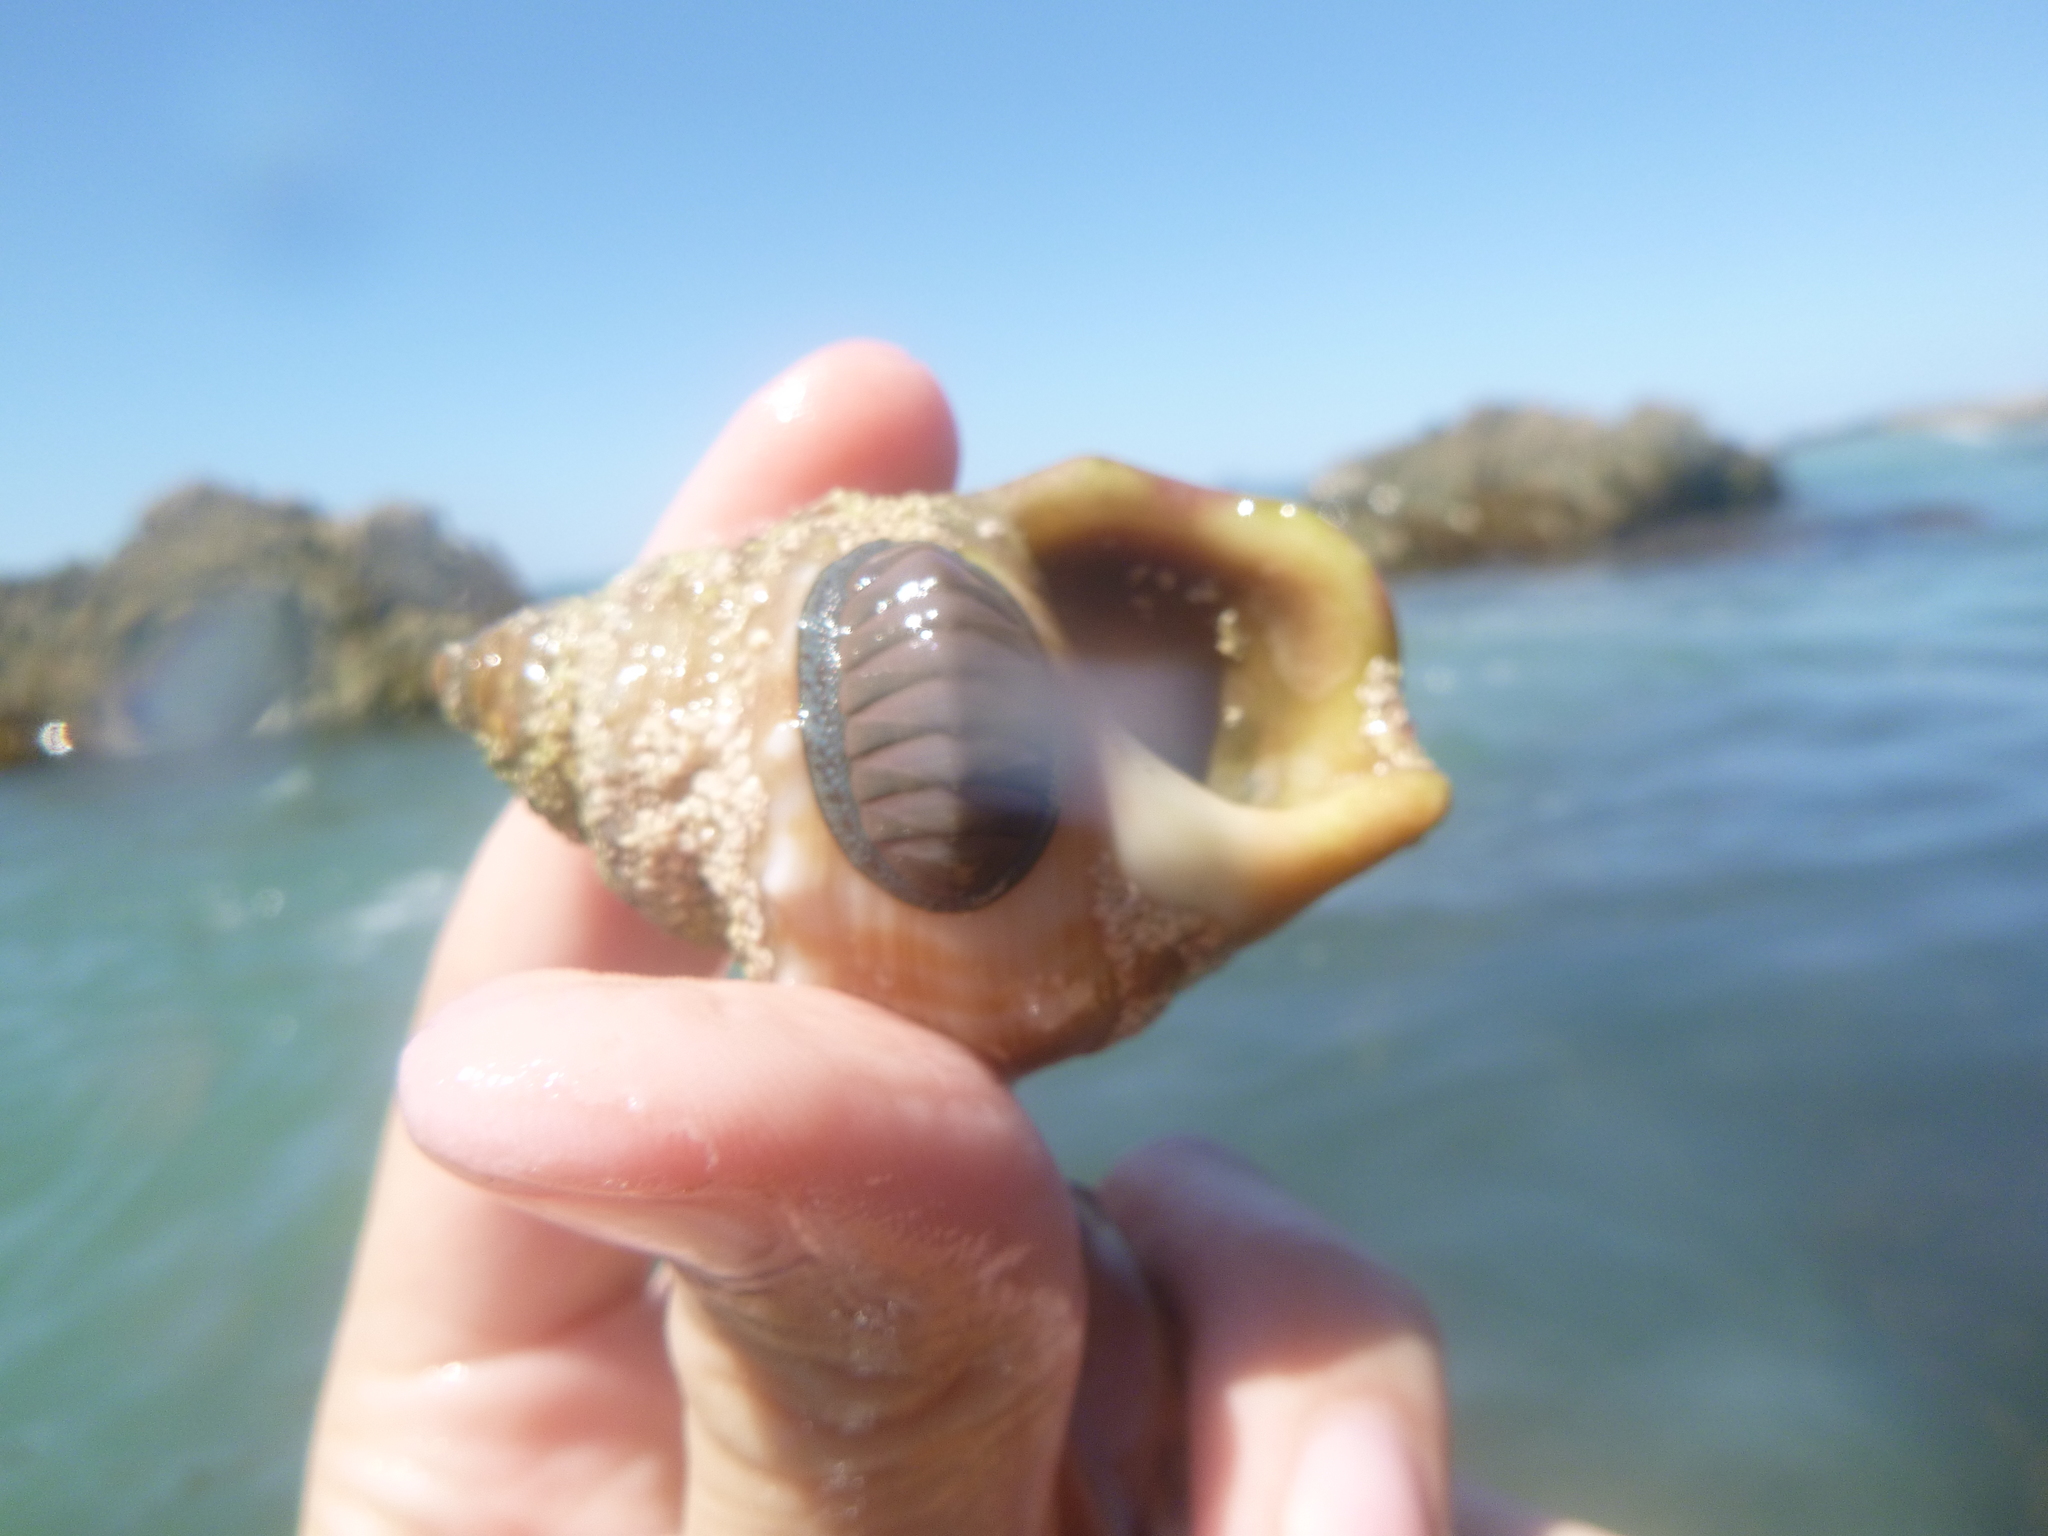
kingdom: Animalia
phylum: Mollusca
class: Polyplacophora
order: Chitonida
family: Chitonidae
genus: Chiton
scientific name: Chiton glaucus
